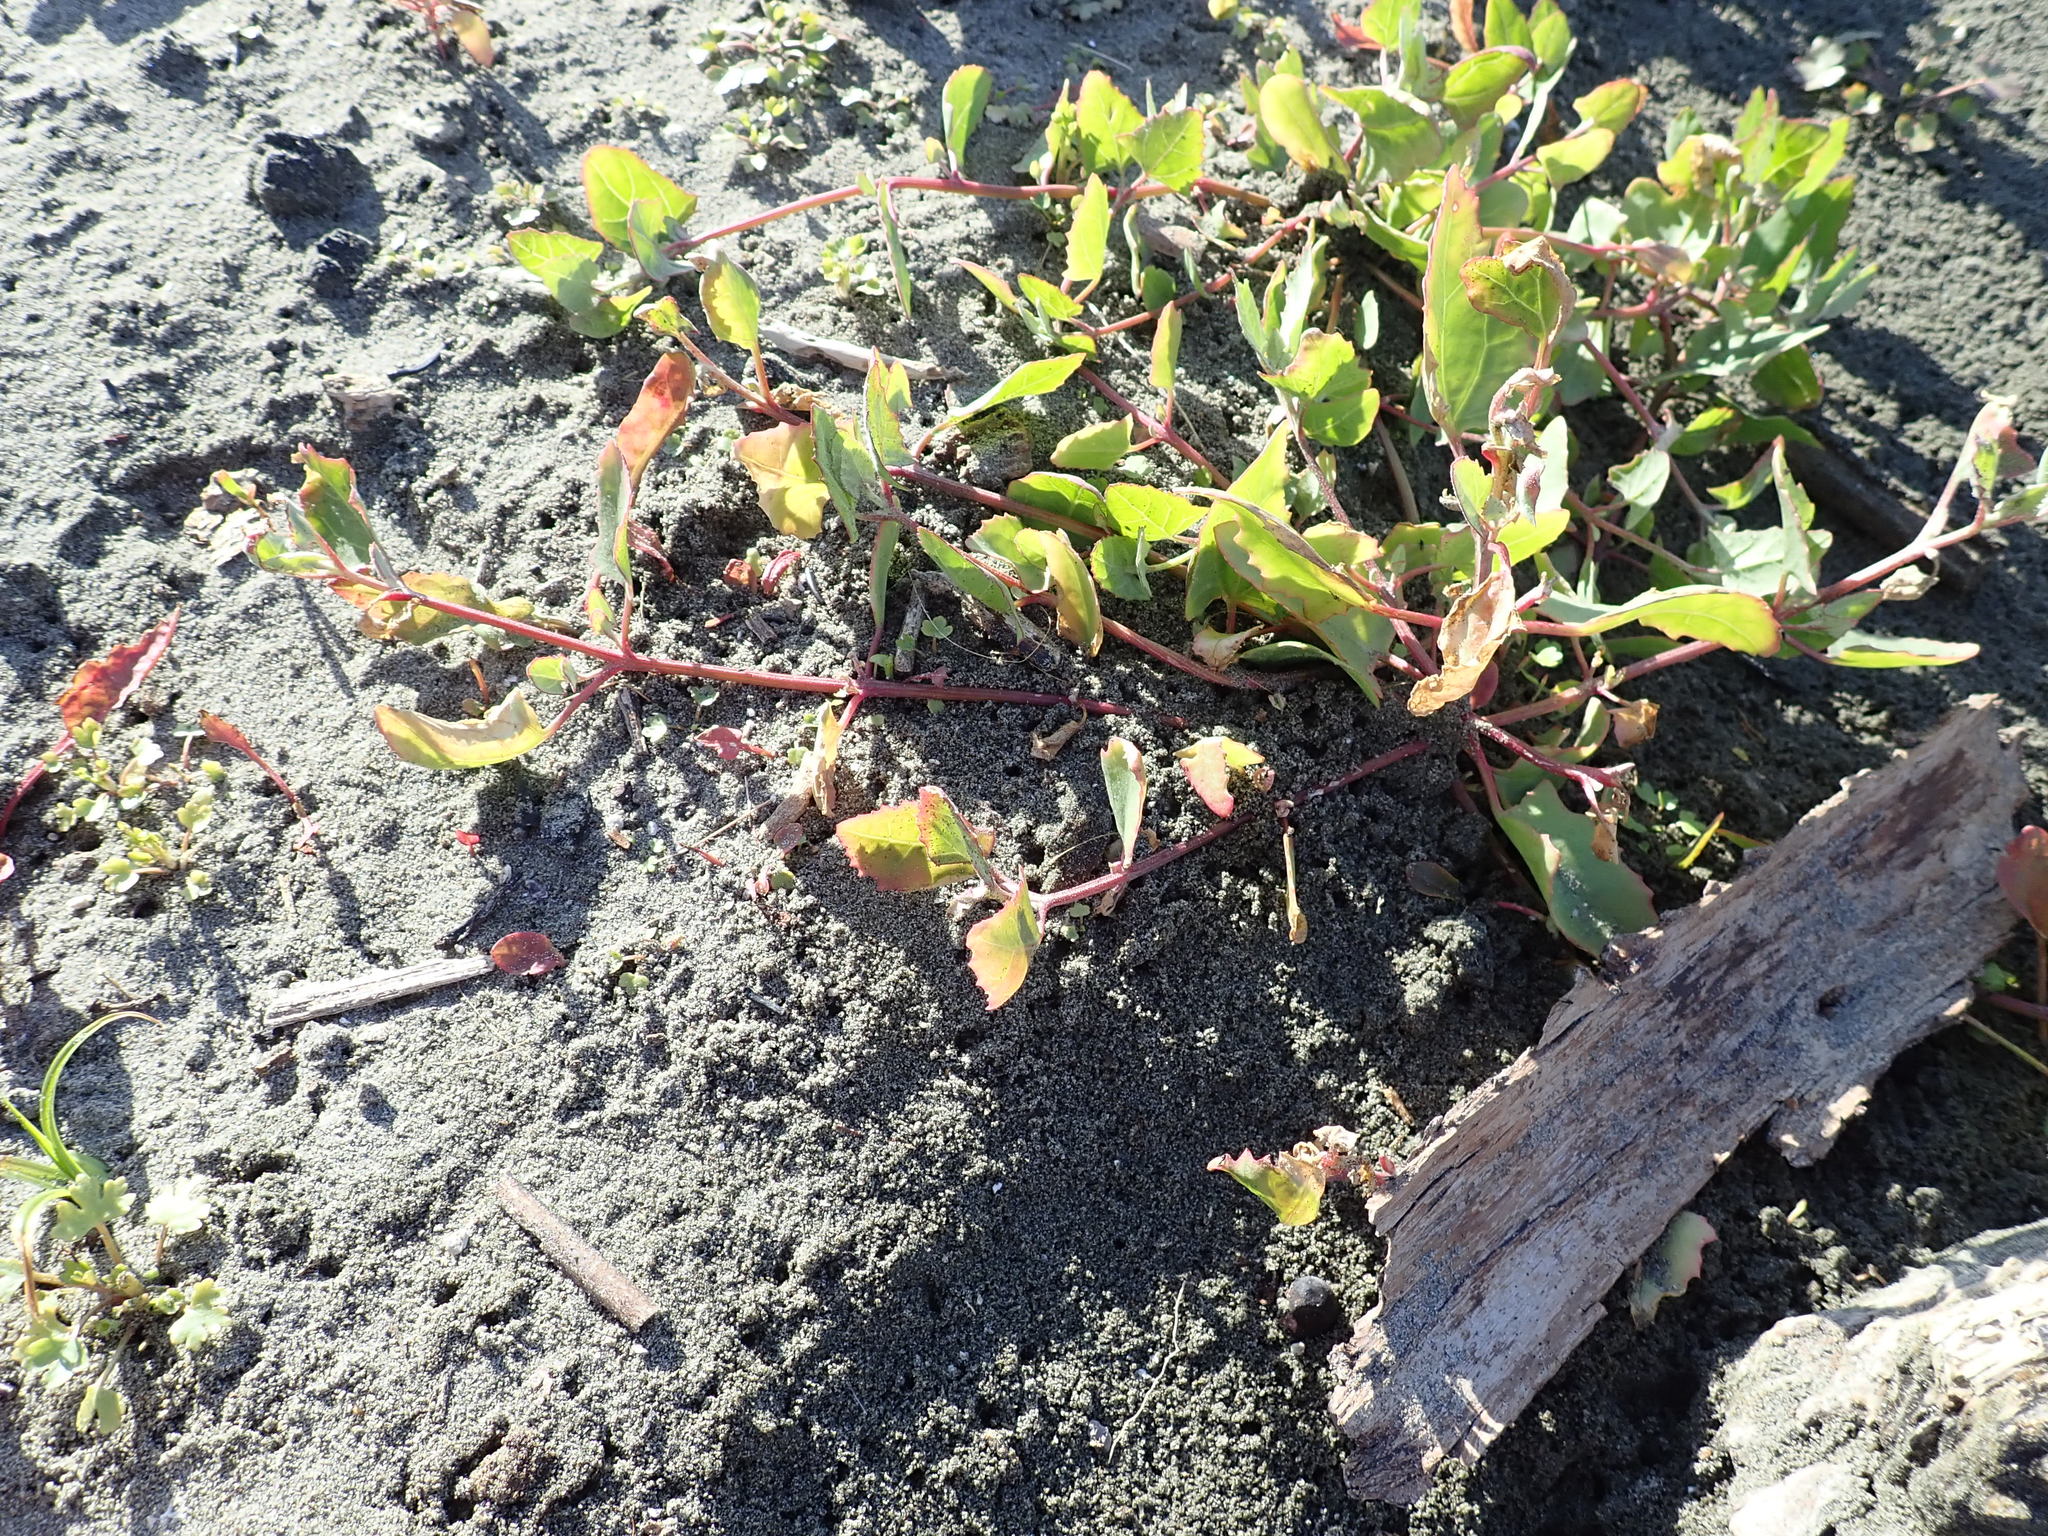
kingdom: Plantae
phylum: Tracheophyta
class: Magnoliopsida
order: Caryophyllales
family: Amaranthaceae
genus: Atriplex
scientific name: Atriplex prostrata
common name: Spear-leaved orache
